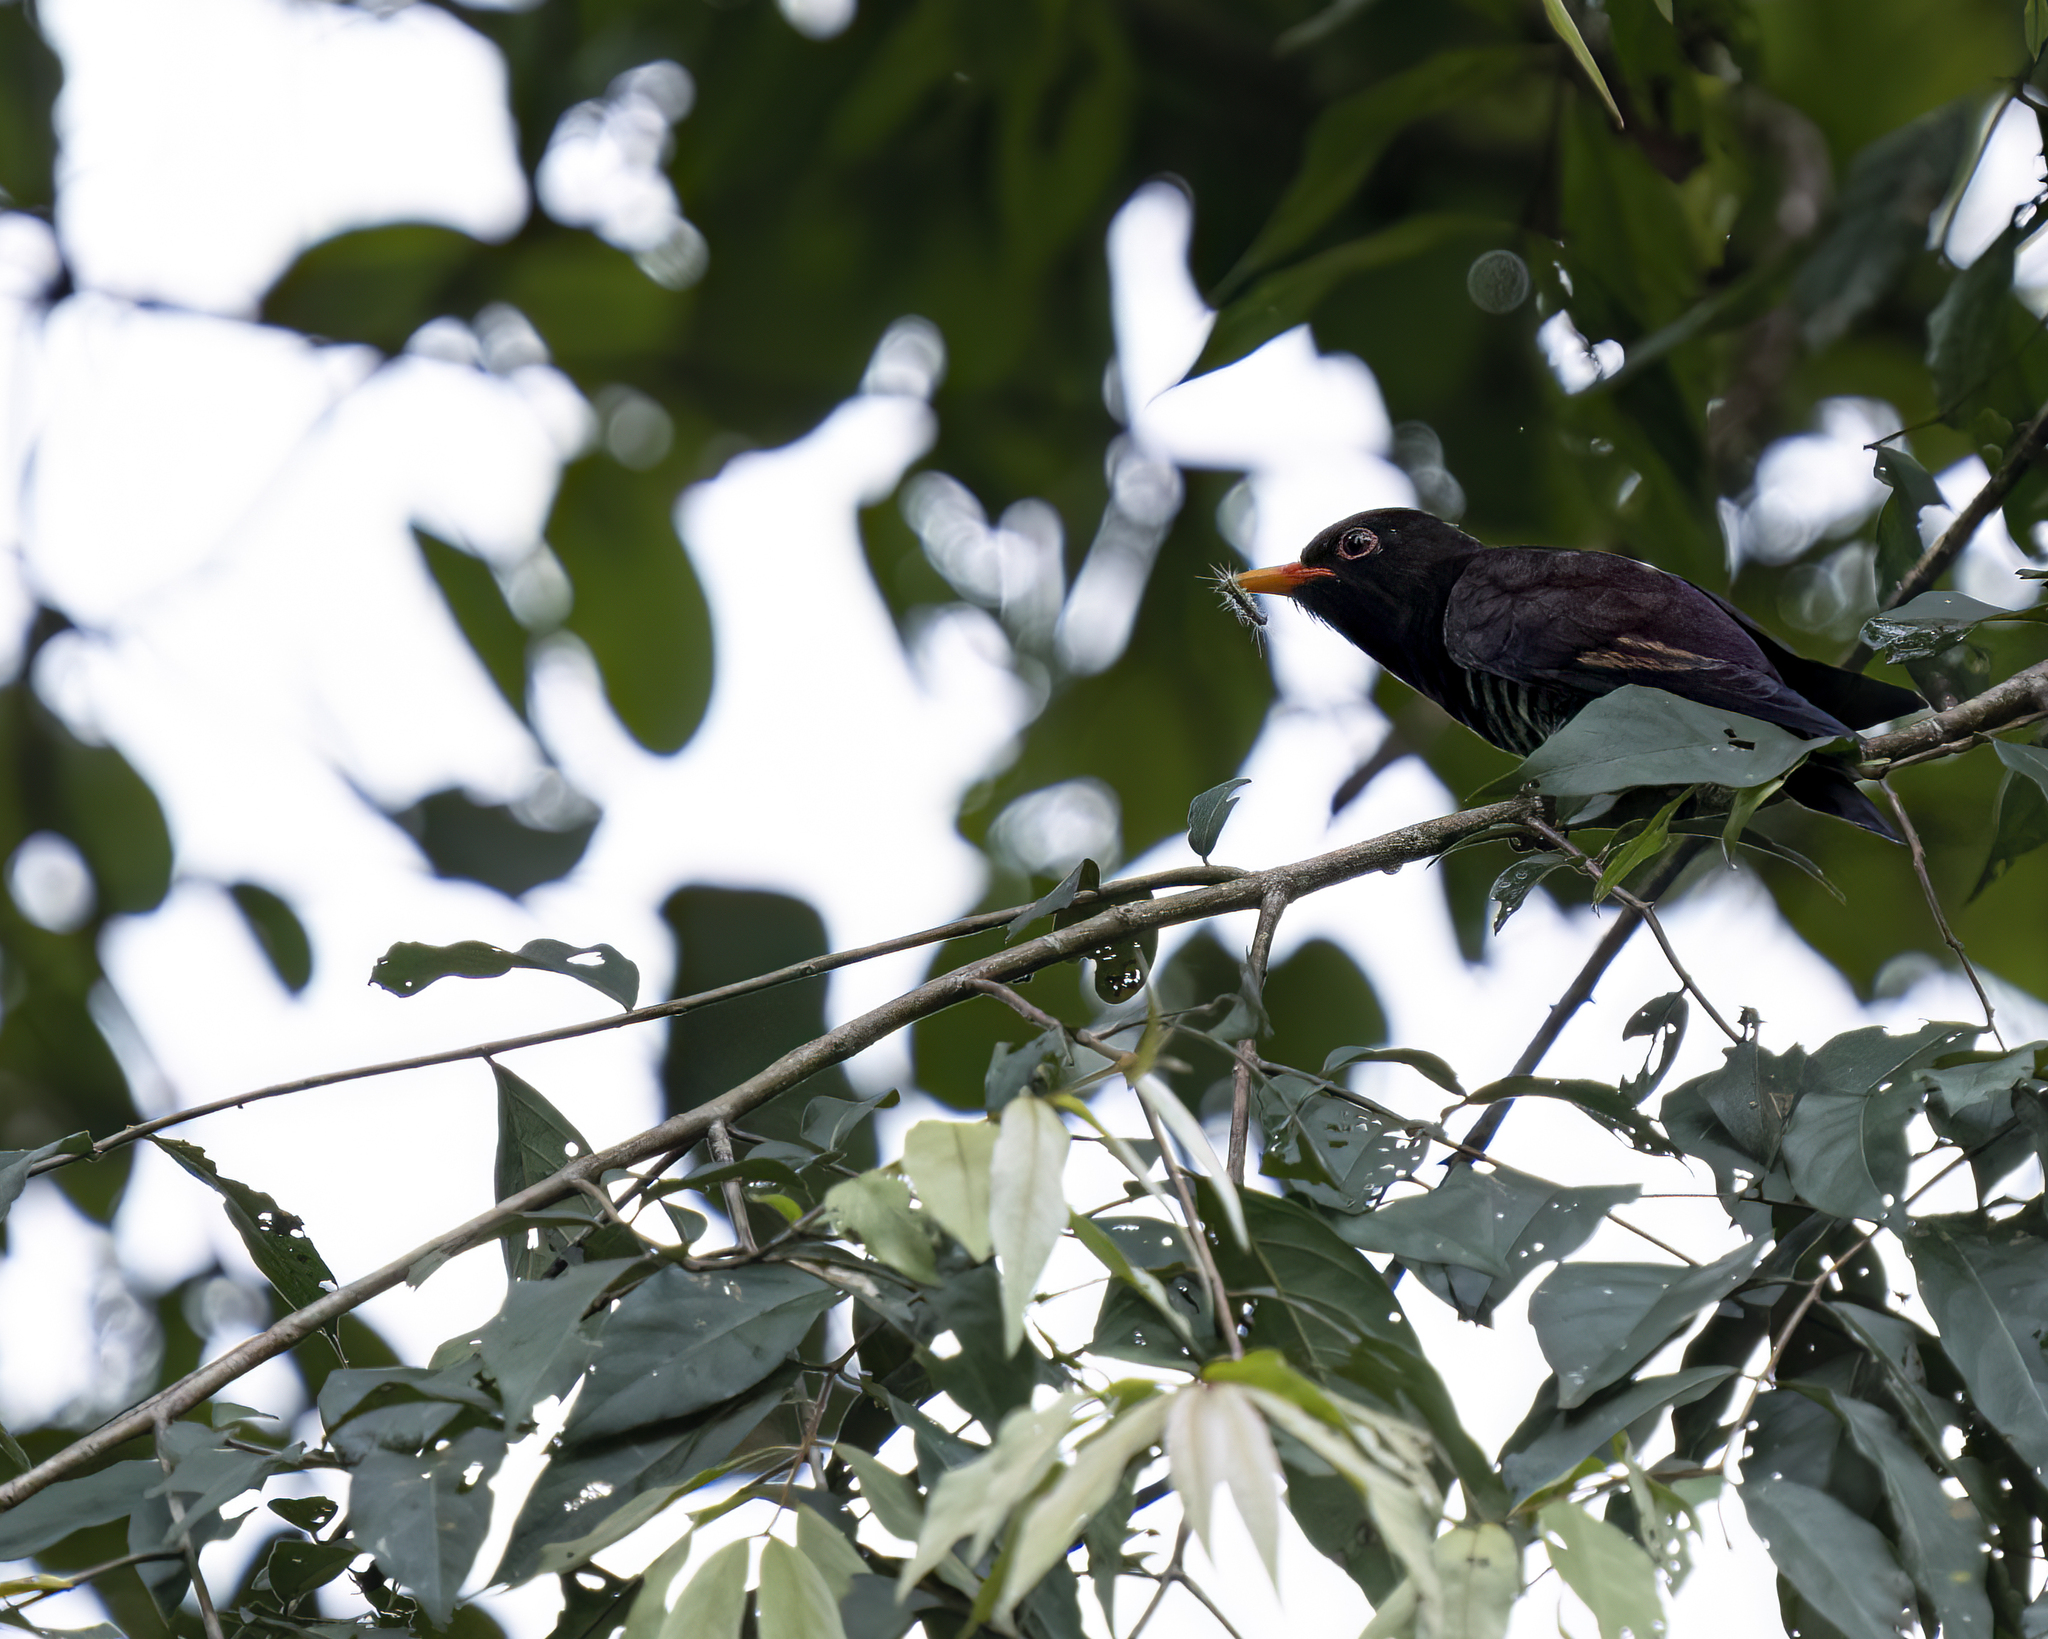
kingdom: Animalia
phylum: Chordata
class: Aves
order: Cuculiformes
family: Cuculidae
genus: Chrysococcyx
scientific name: Chrysococcyx xanthorhynchus
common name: Violet cuckoo
